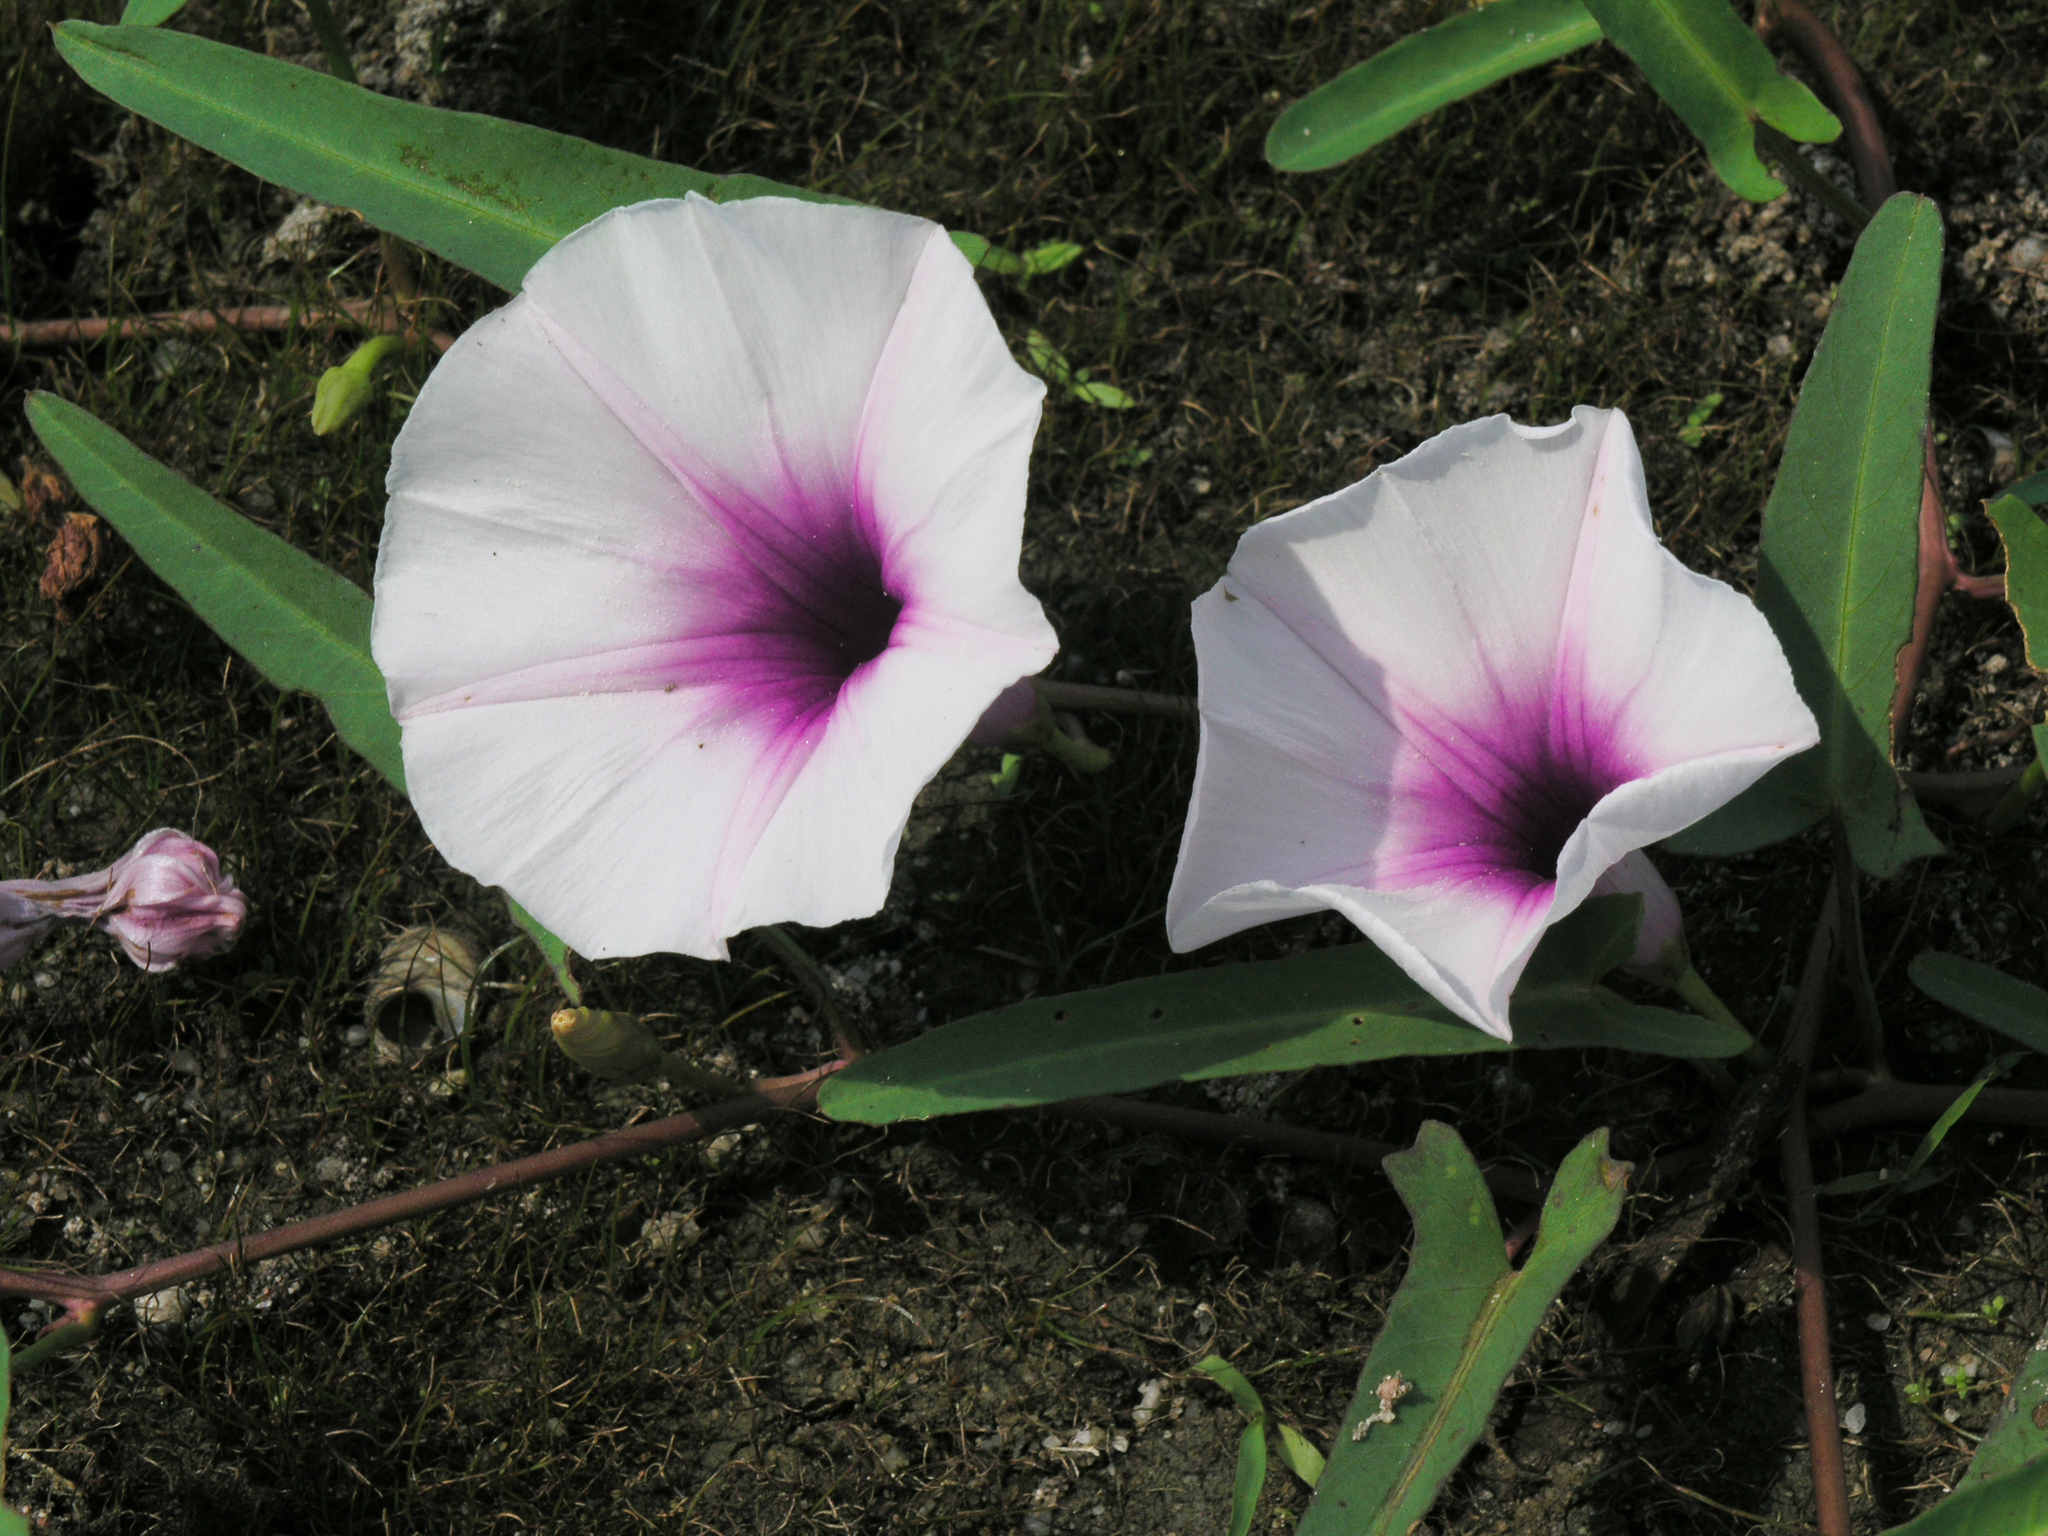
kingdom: Plantae
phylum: Tracheophyta
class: Magnoliopsida
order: Solanales
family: Convolvulaceae
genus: Ipomoea
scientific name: Ipomoea aquatica
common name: Swamp morning-glory
